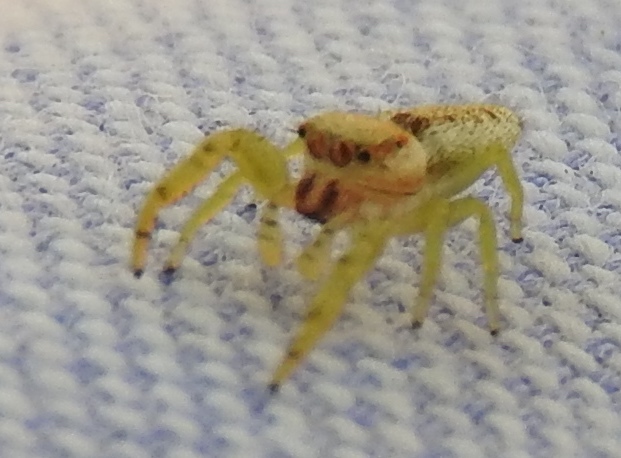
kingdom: Animalia
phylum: Arthropoda
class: Arachnida
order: Araneae
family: Salticidae
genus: Hentzia
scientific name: Hentzia palmarum
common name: Common hentz jumping spider
